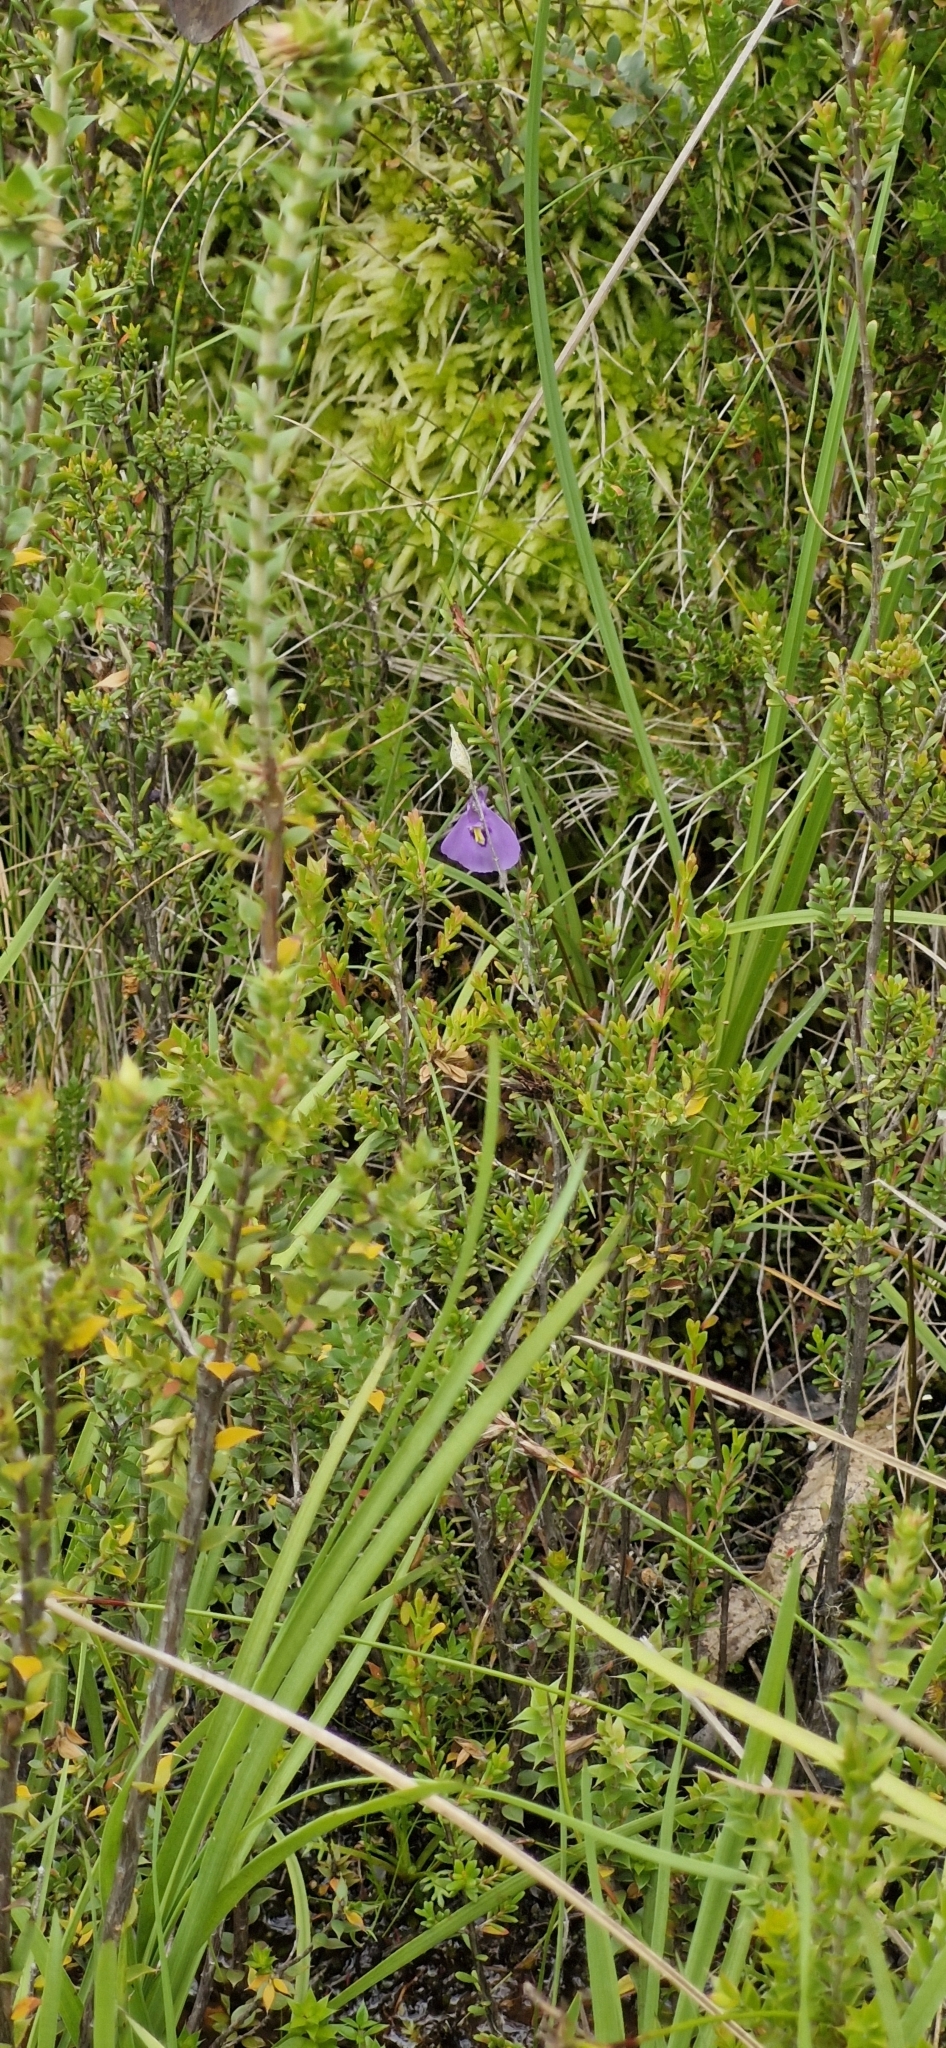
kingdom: Plantae
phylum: Tracheophyta
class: Magnoliopsida
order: Lamiales
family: Lentibulariaceae
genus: Utricularia
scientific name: Utricularia dichotoma
